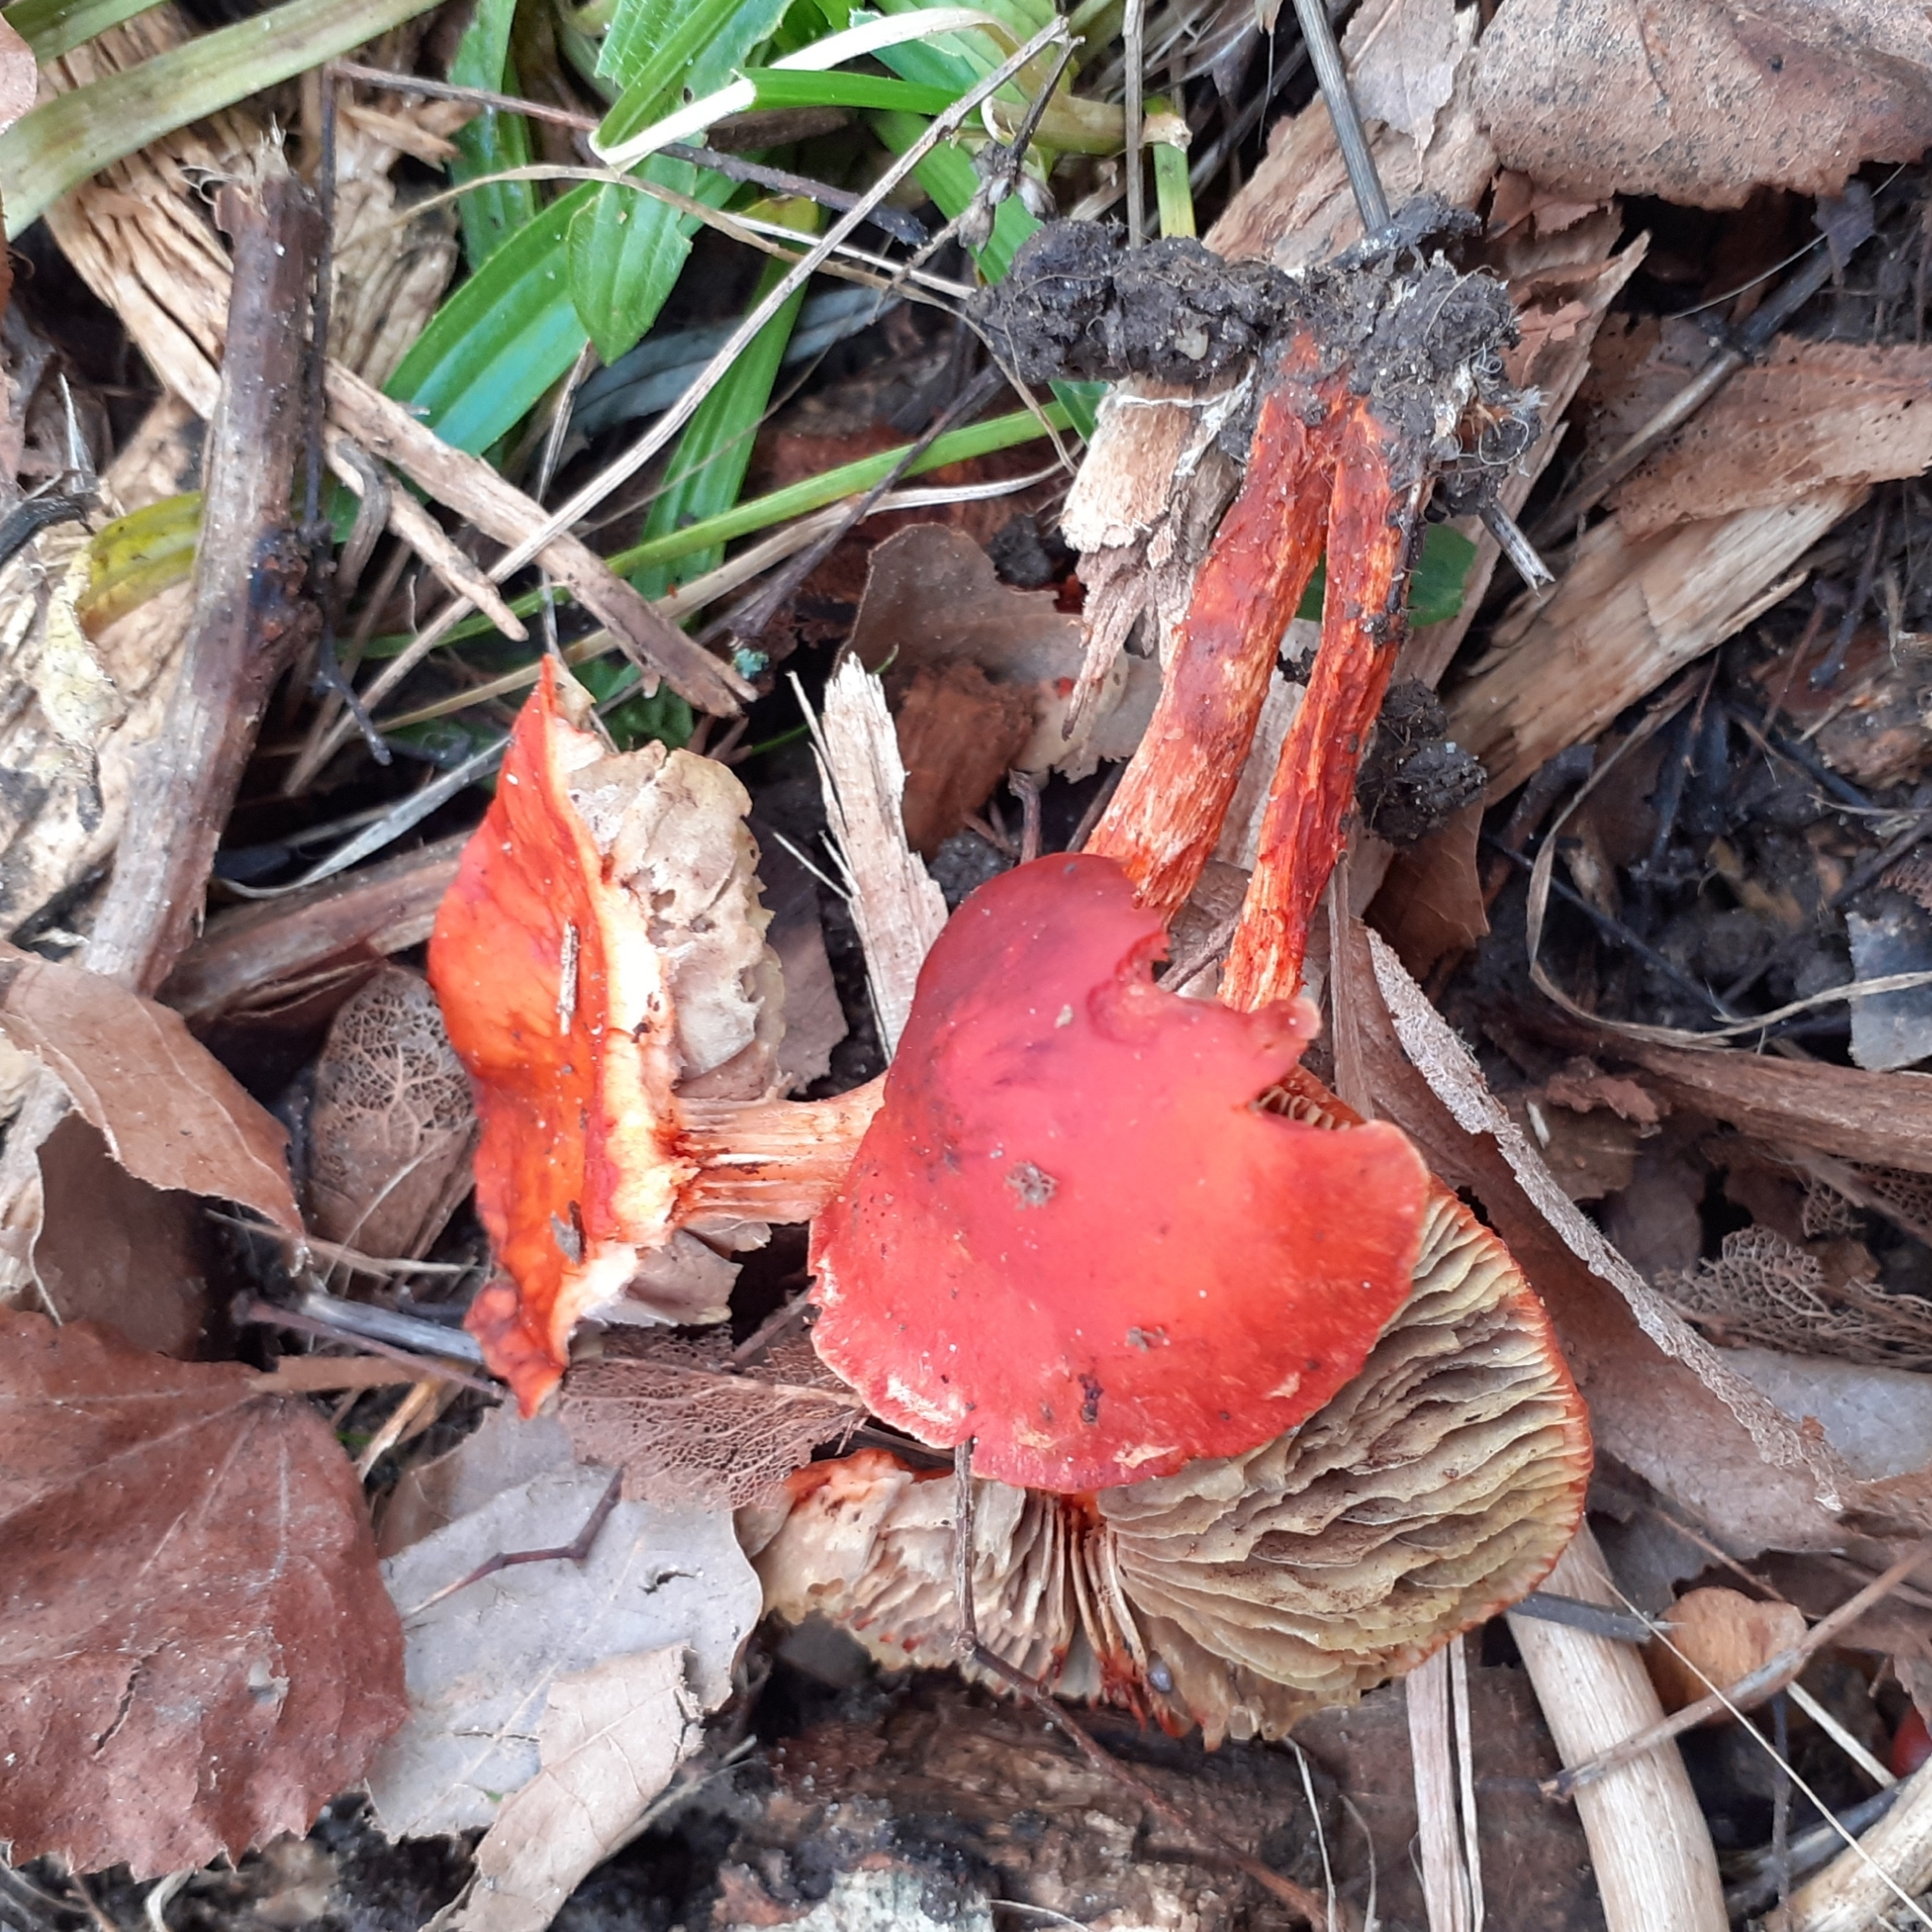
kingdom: Fungi
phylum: Basidiomycota
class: Agaricomycetes
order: Agaricales
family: Strophariaceae
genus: Leratiomyces
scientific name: Leratiomyces ceres
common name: Redlead roundhead
